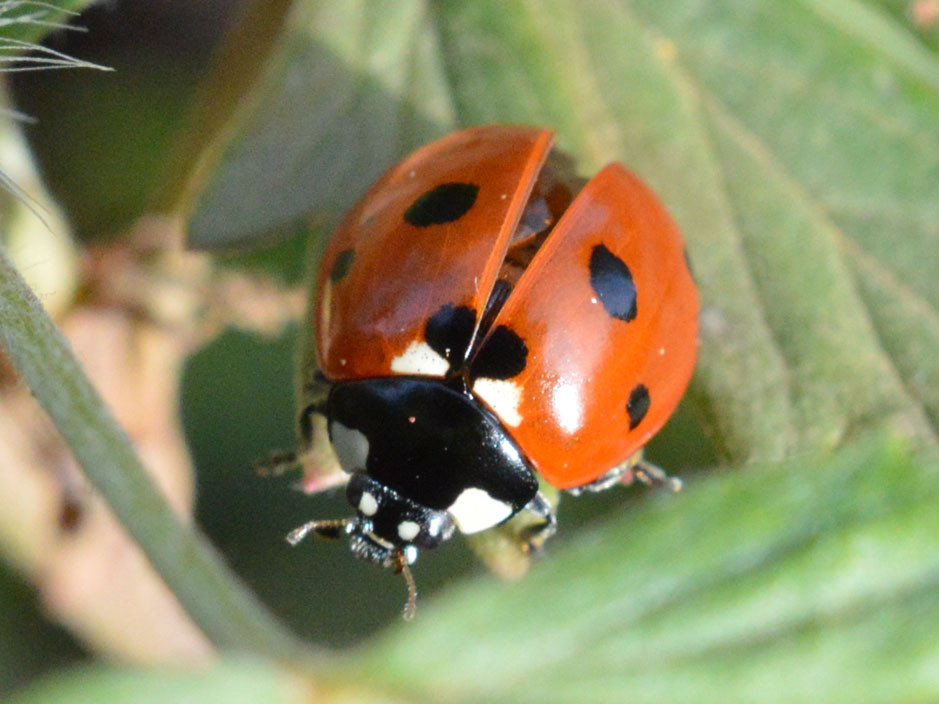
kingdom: Animalia
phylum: Arthropoda
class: Insecta
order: Coleoptera
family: Coccinellidae
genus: Coccinella
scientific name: Coccinella septempunctata
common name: Sevenspotted lady beetle
